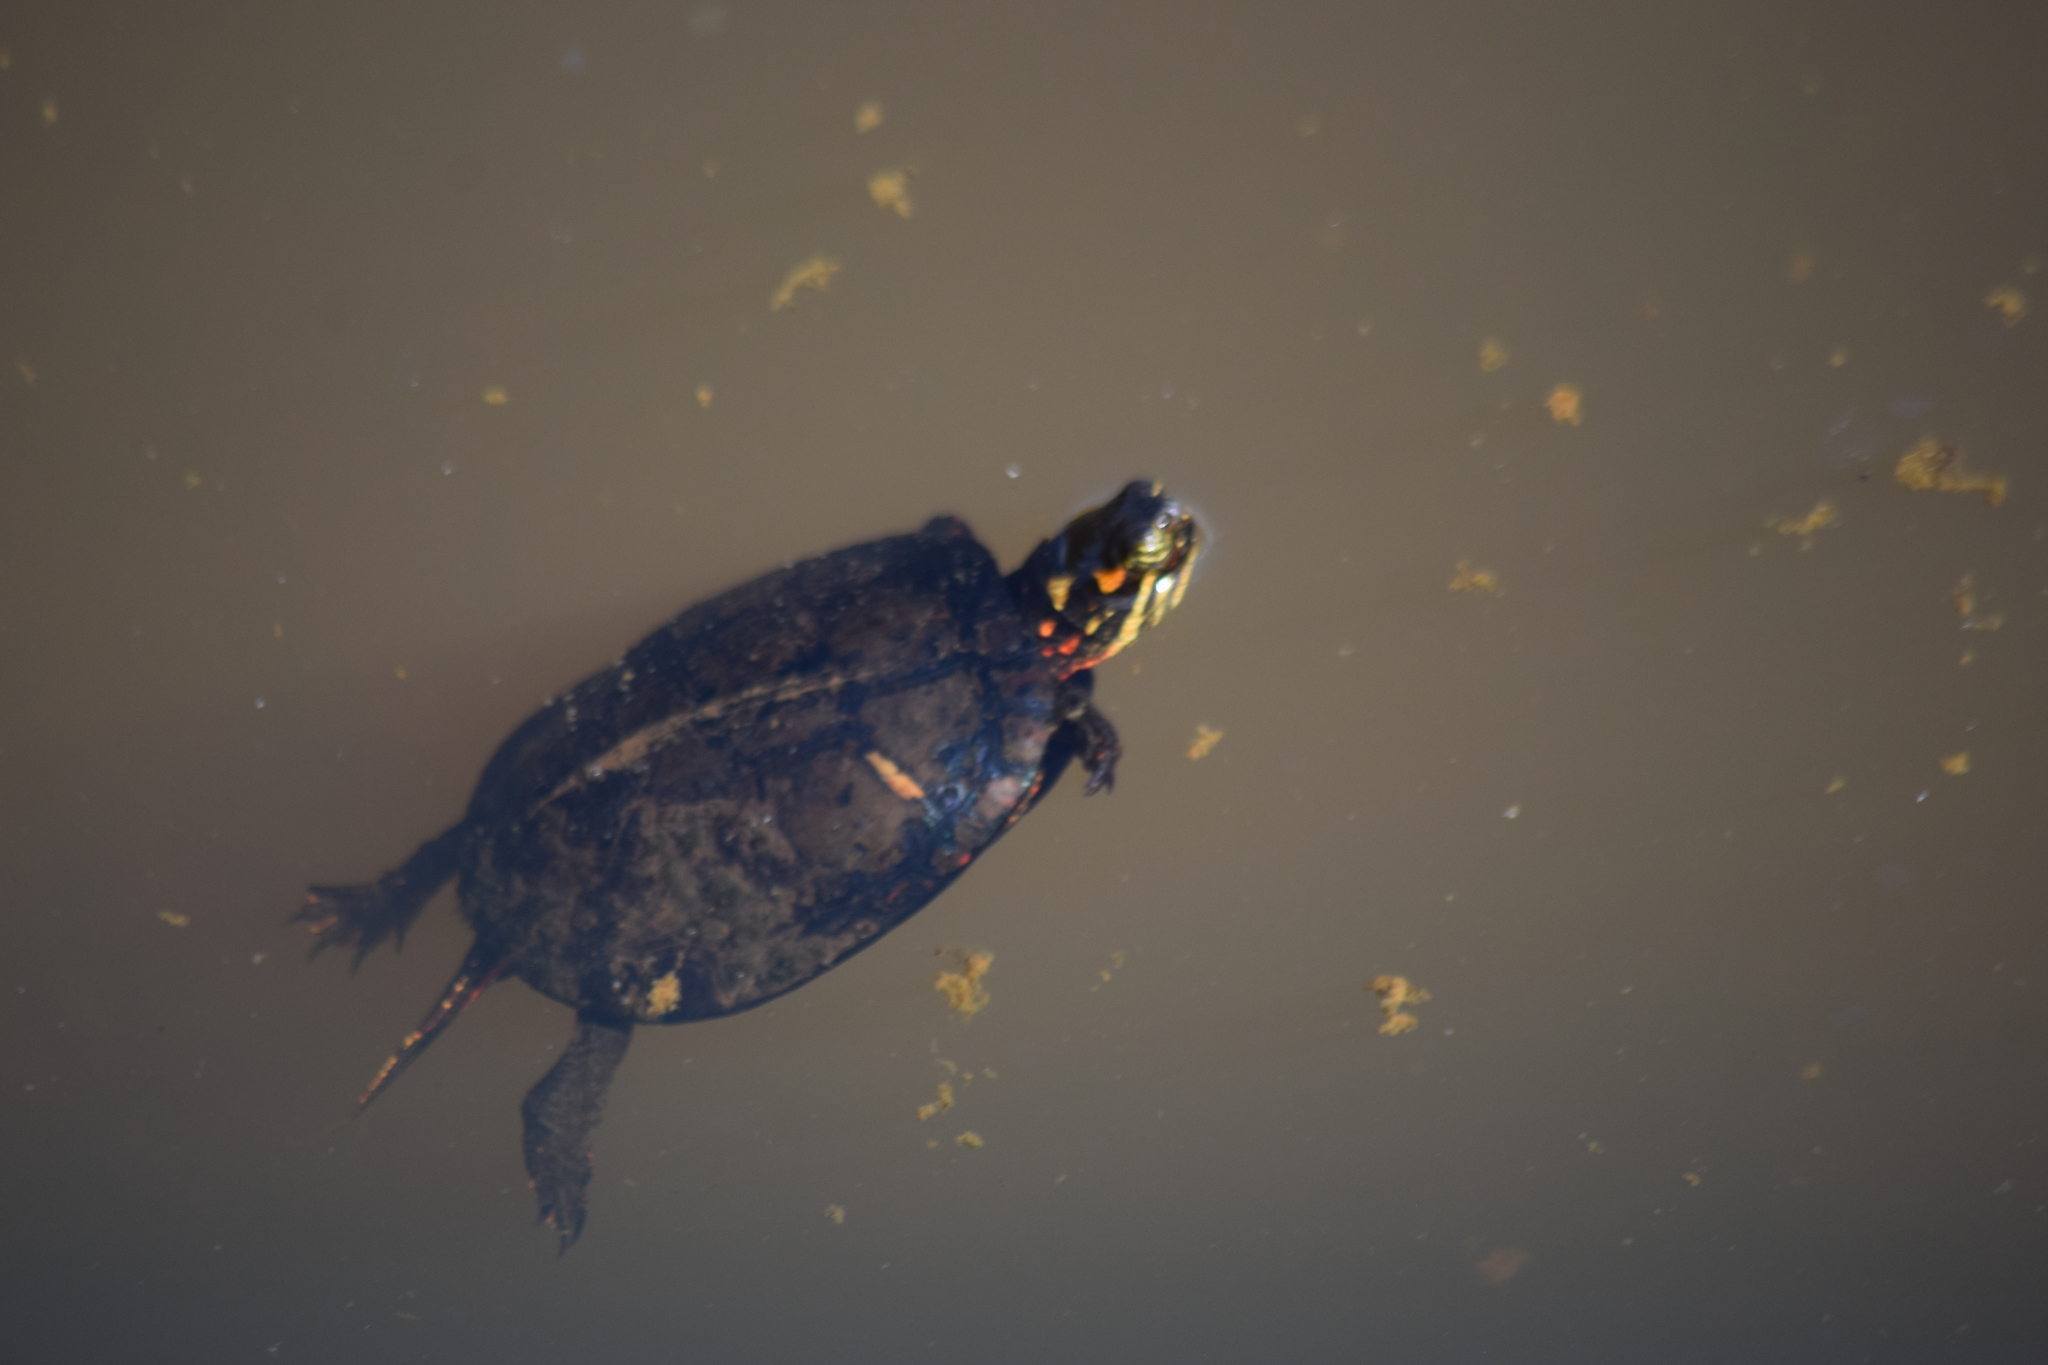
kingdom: Animalia
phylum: Chordata
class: Testudines
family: Emydidae
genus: Chrysemys
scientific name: Chrysemys picta
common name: Painted turtle
